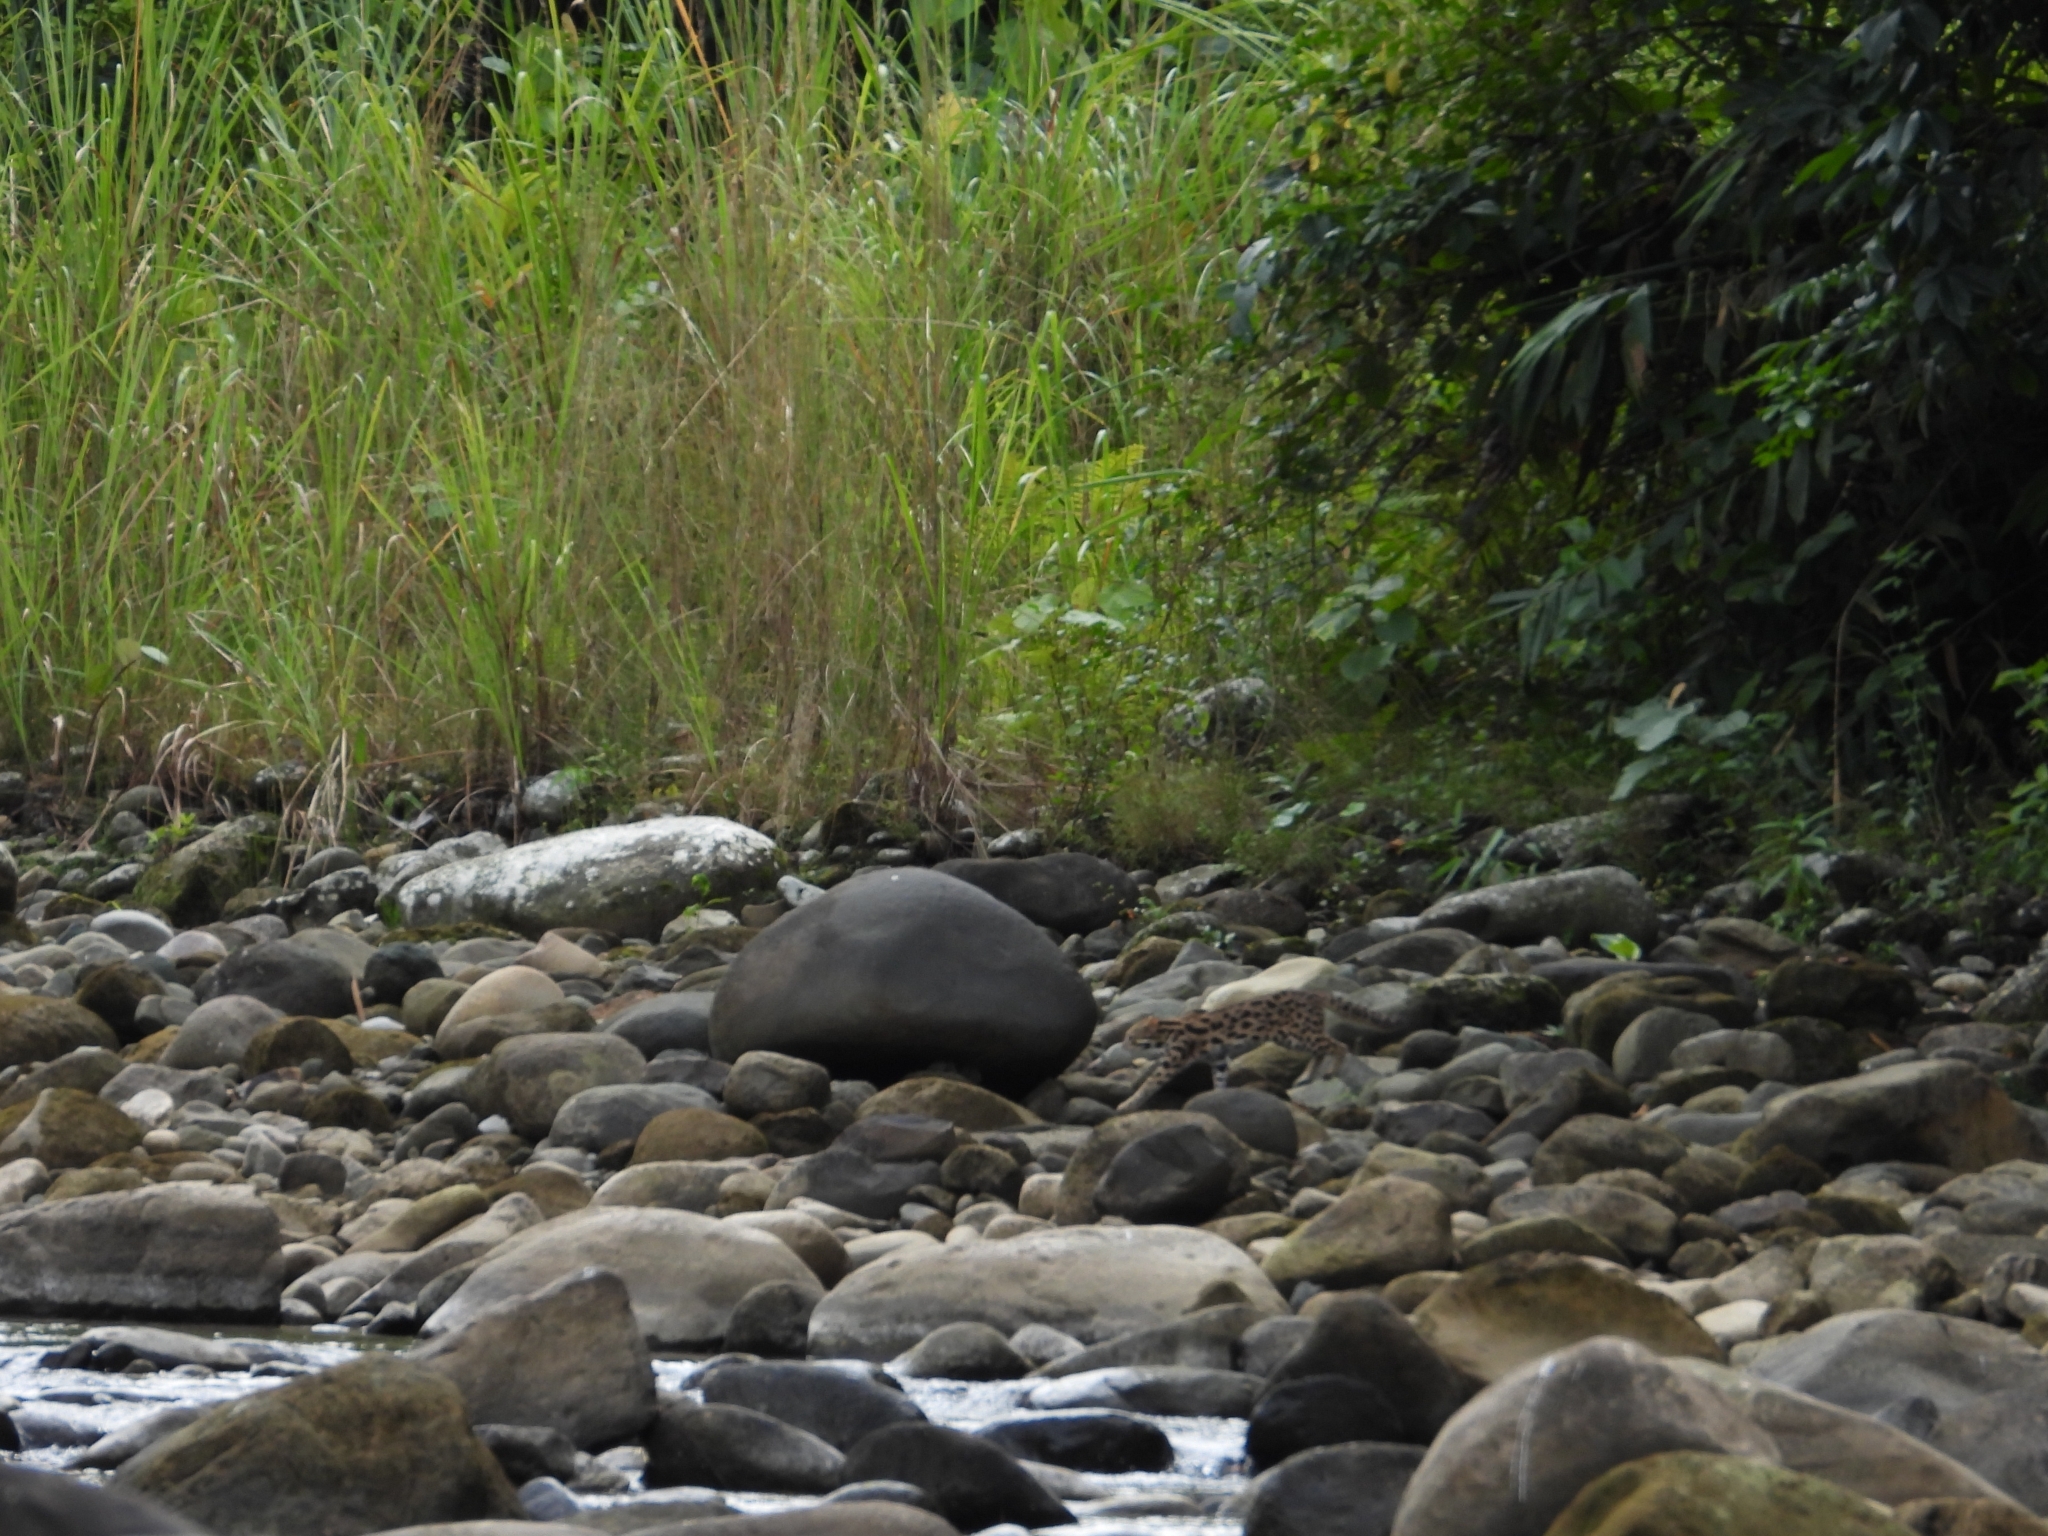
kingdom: Animalia
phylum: Chordata
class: Mammalia
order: Carnivora
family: Felidae
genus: Prionailurus
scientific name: Prionailurus bengalensis
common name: Leopard cat
